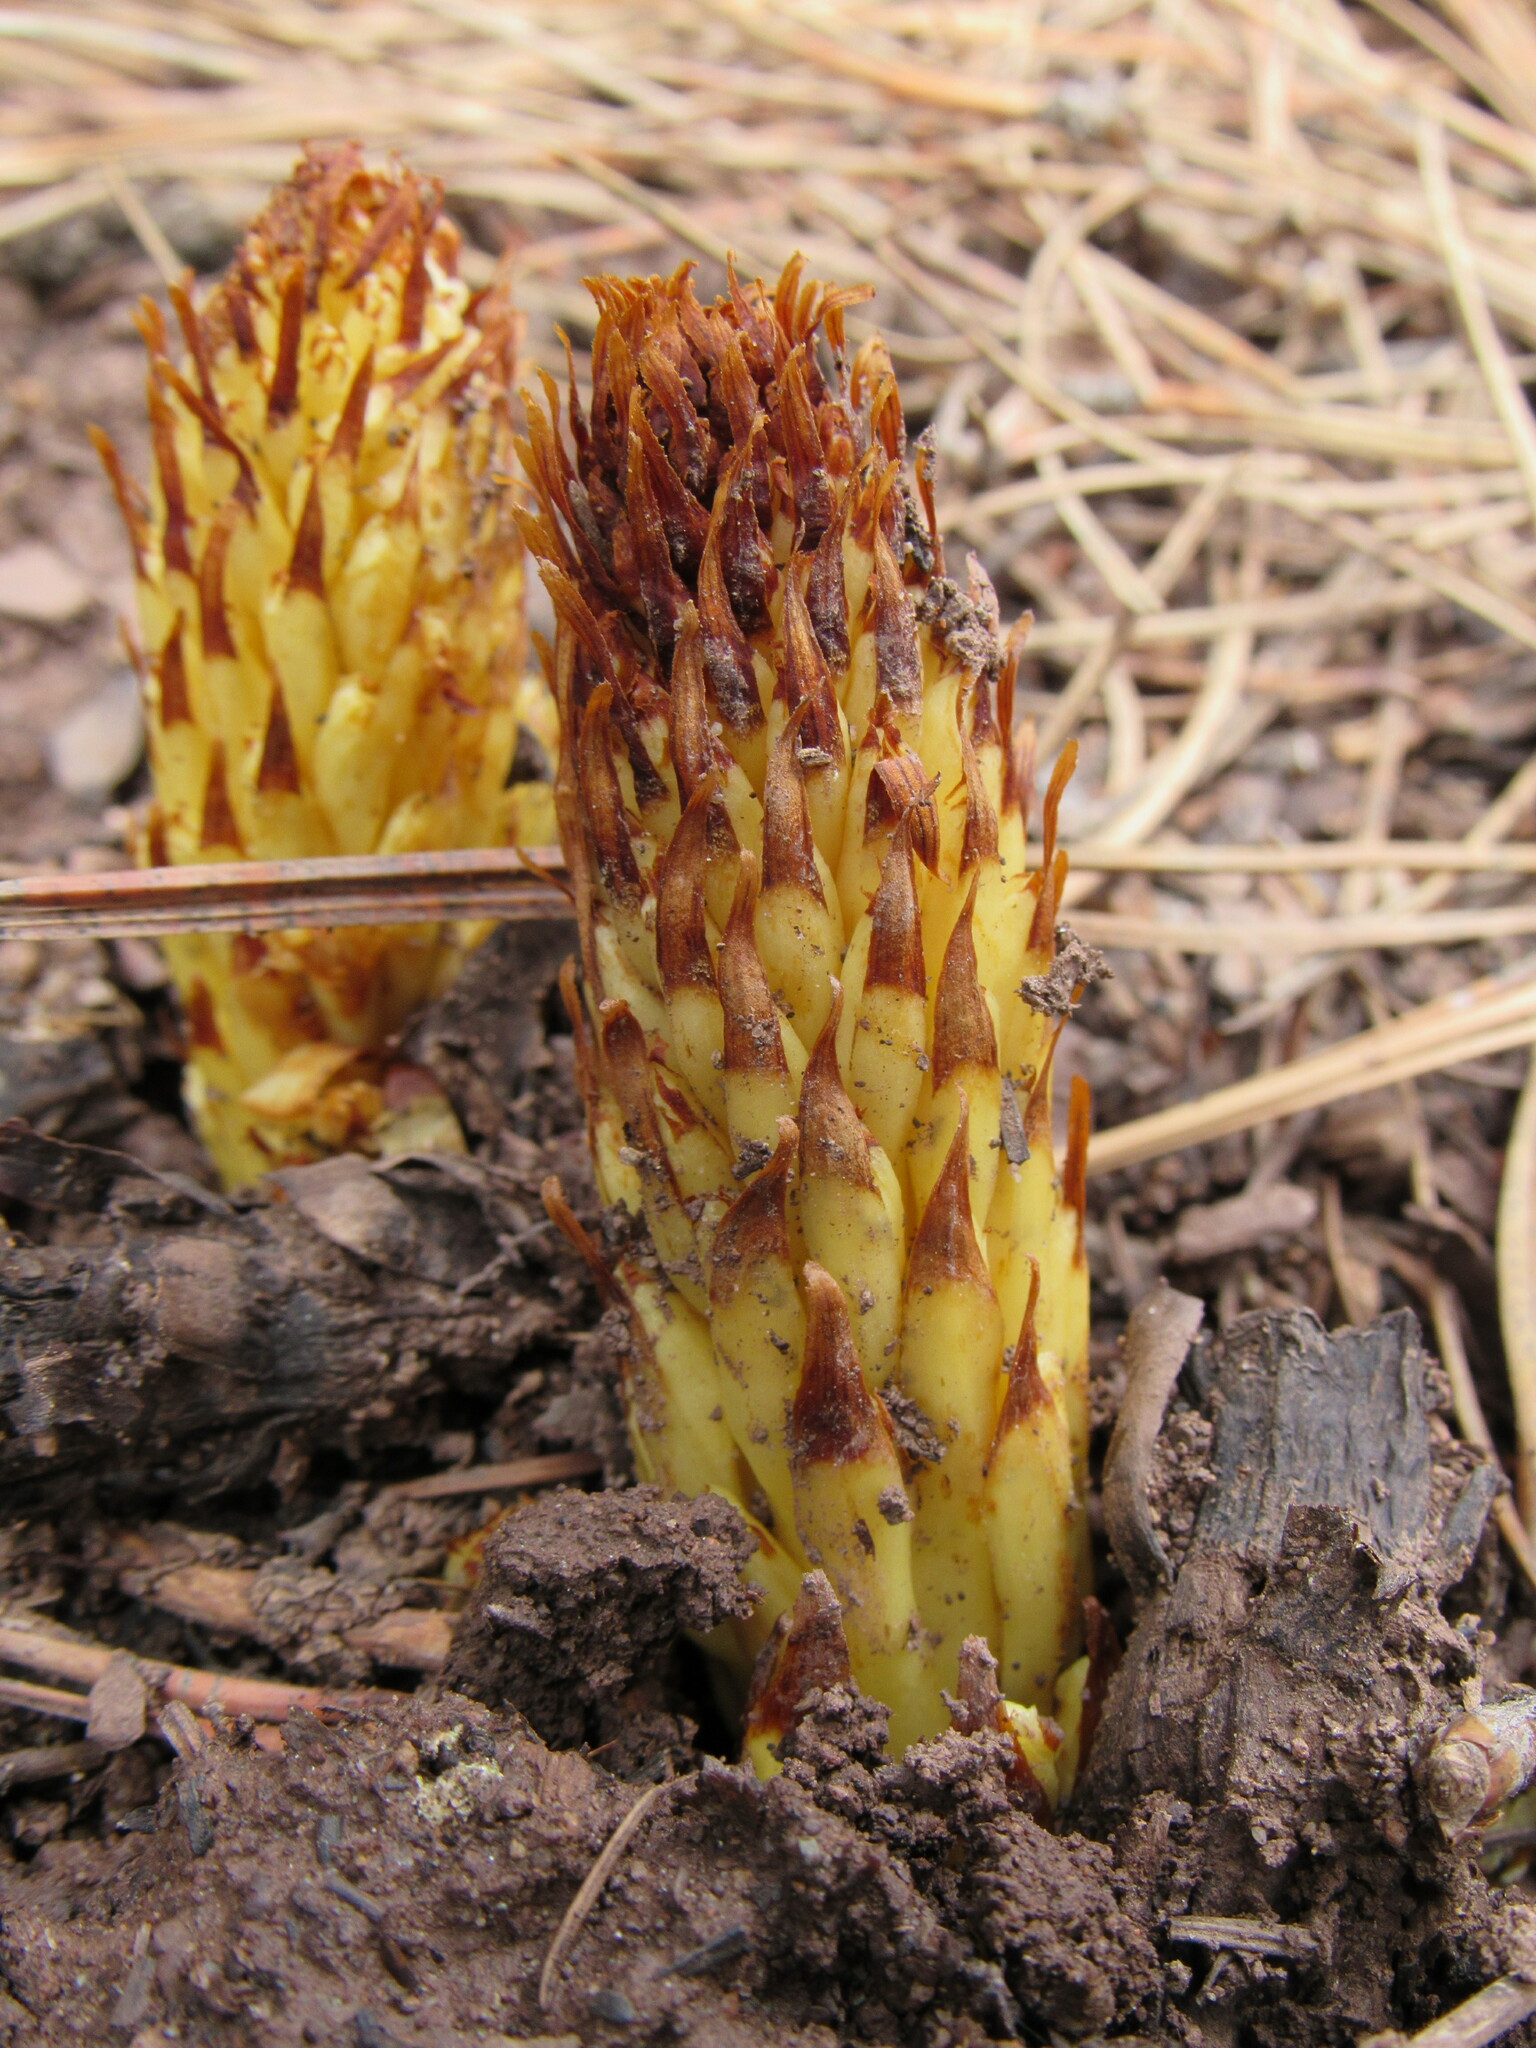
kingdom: Plantae
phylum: Tracheophyta
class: Magnoliopsida
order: Lamiales
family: Orobanchaceae
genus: Conopholis
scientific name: Conopholis alpina
